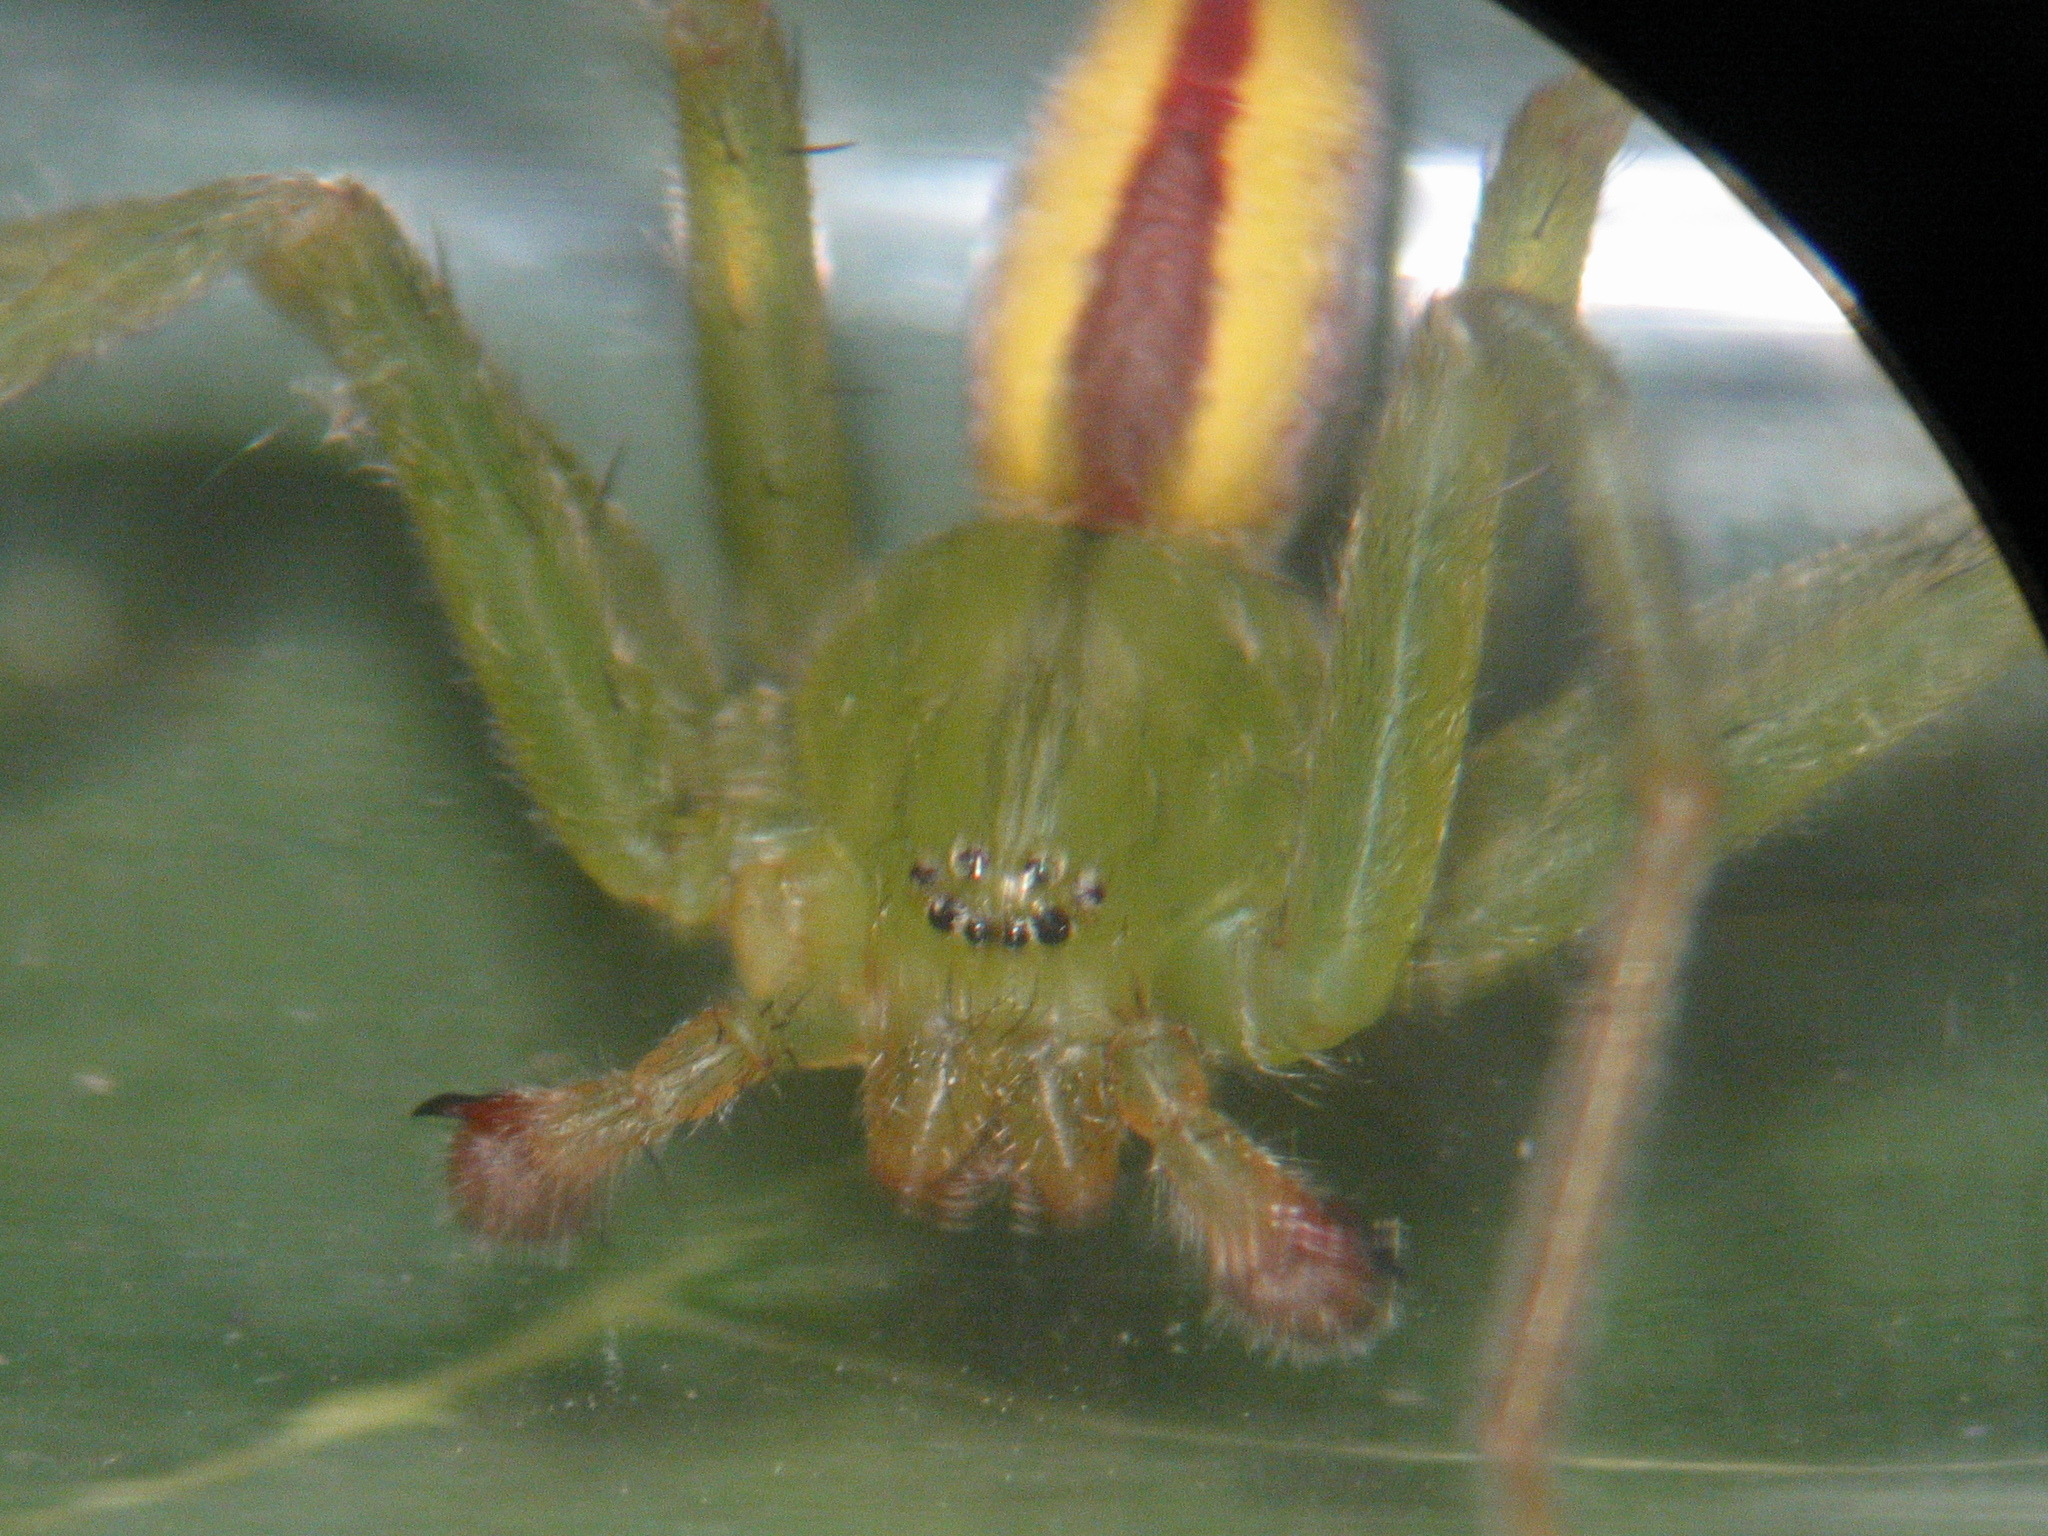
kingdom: Animalia
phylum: Arthropoda
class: Arachnida
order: Araneae
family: Sparassidae
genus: Micrommata
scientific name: Micrommata virescens
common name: Green spider
